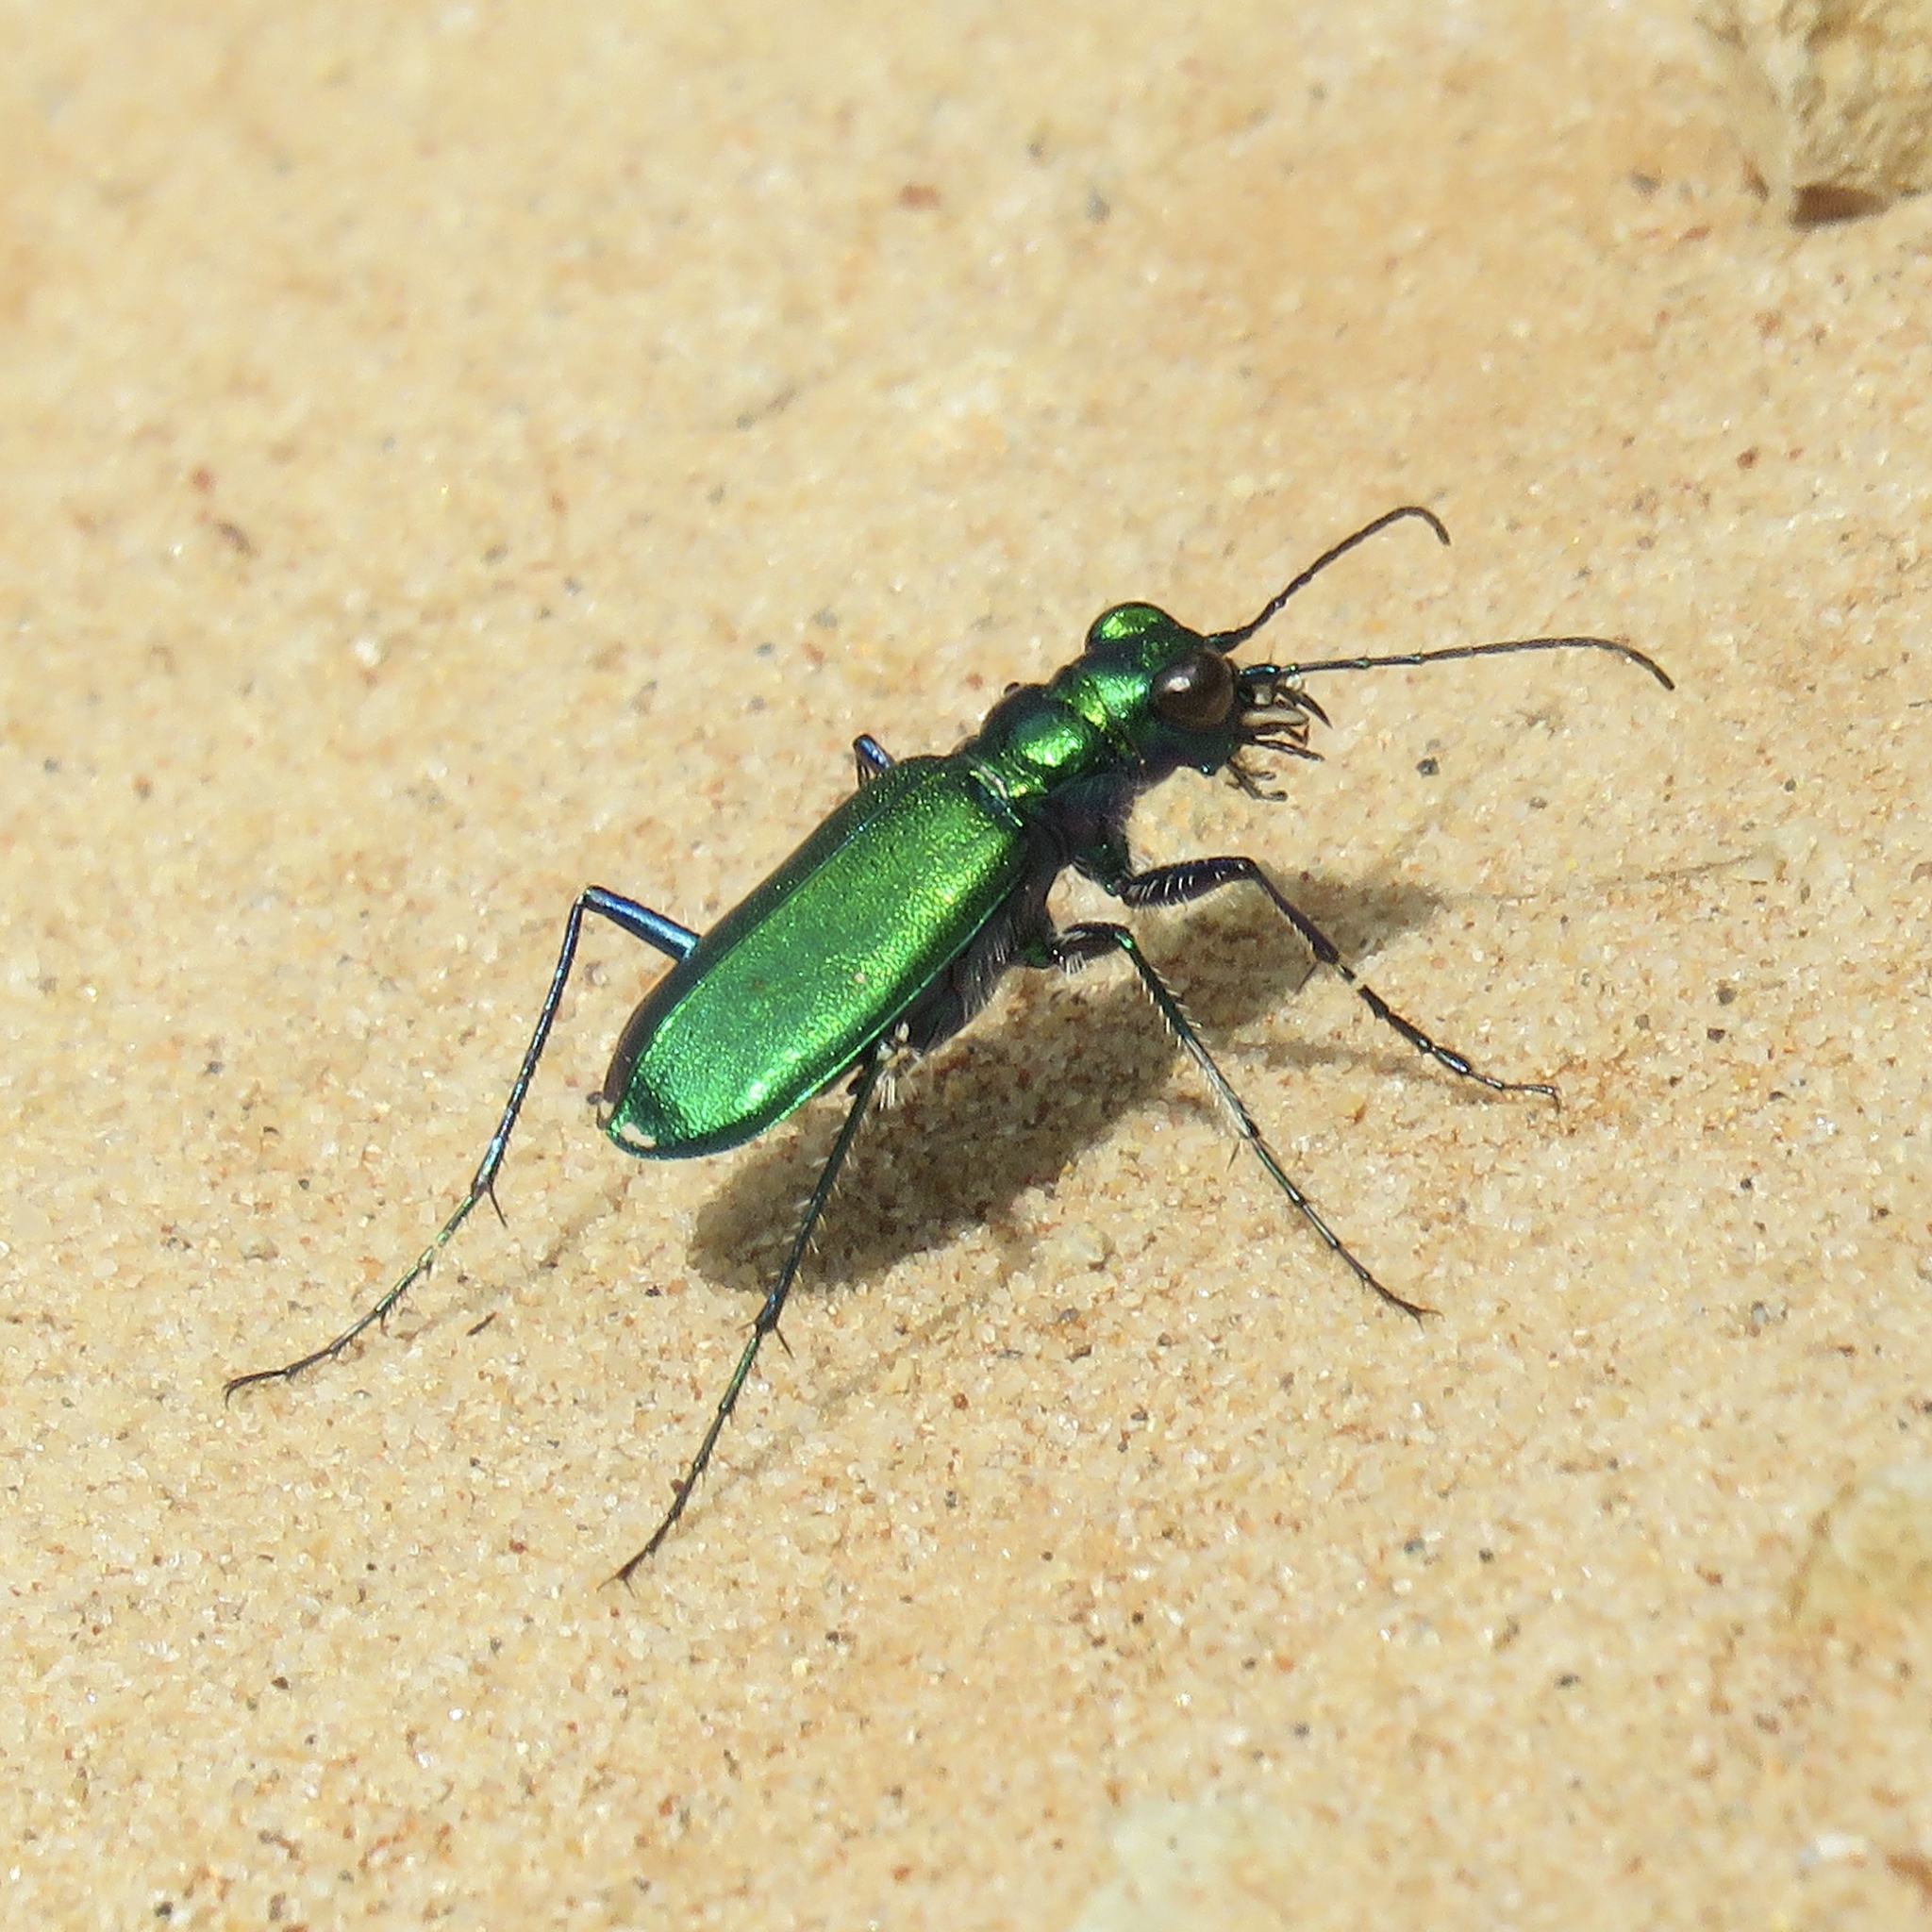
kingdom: Animalia
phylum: Arthropoda
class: Insecta
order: Coleoptera
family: Carabidae
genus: Cicindela
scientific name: Cicindela sexguttata
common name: Six-spotted tiger beetle
